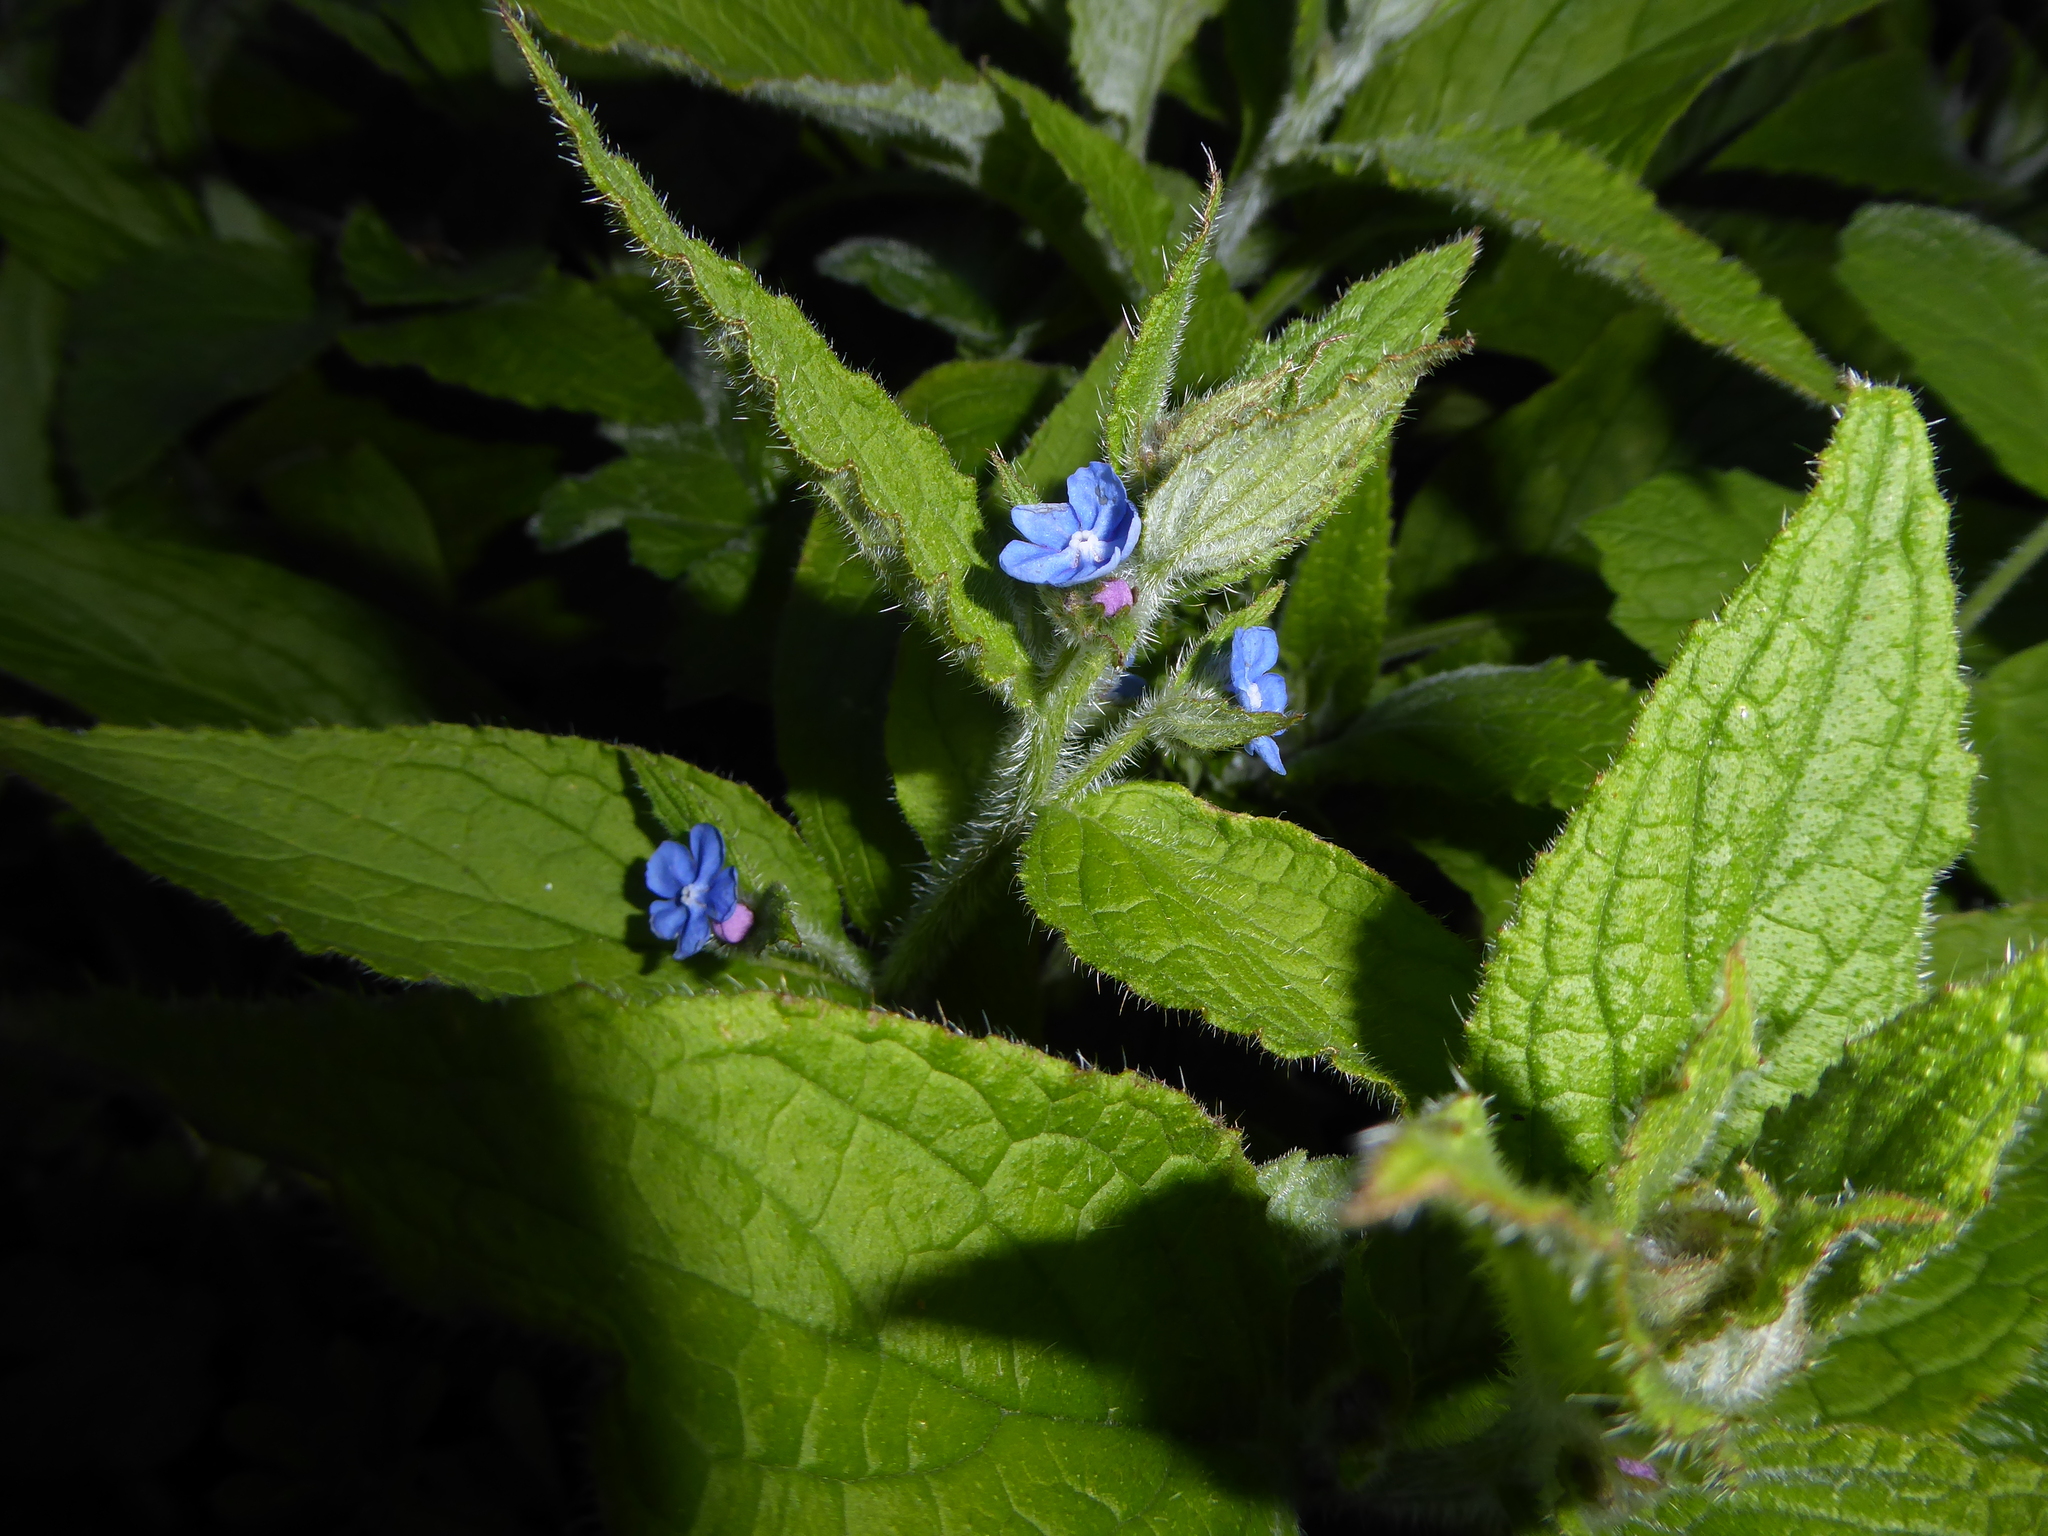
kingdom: Plantae
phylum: Tracheophyta
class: Magnoliopsida
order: Boraginales
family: Boraginaceae
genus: Pentaglottis
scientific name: Pentaglottis sempervirens
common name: Green alkanet
